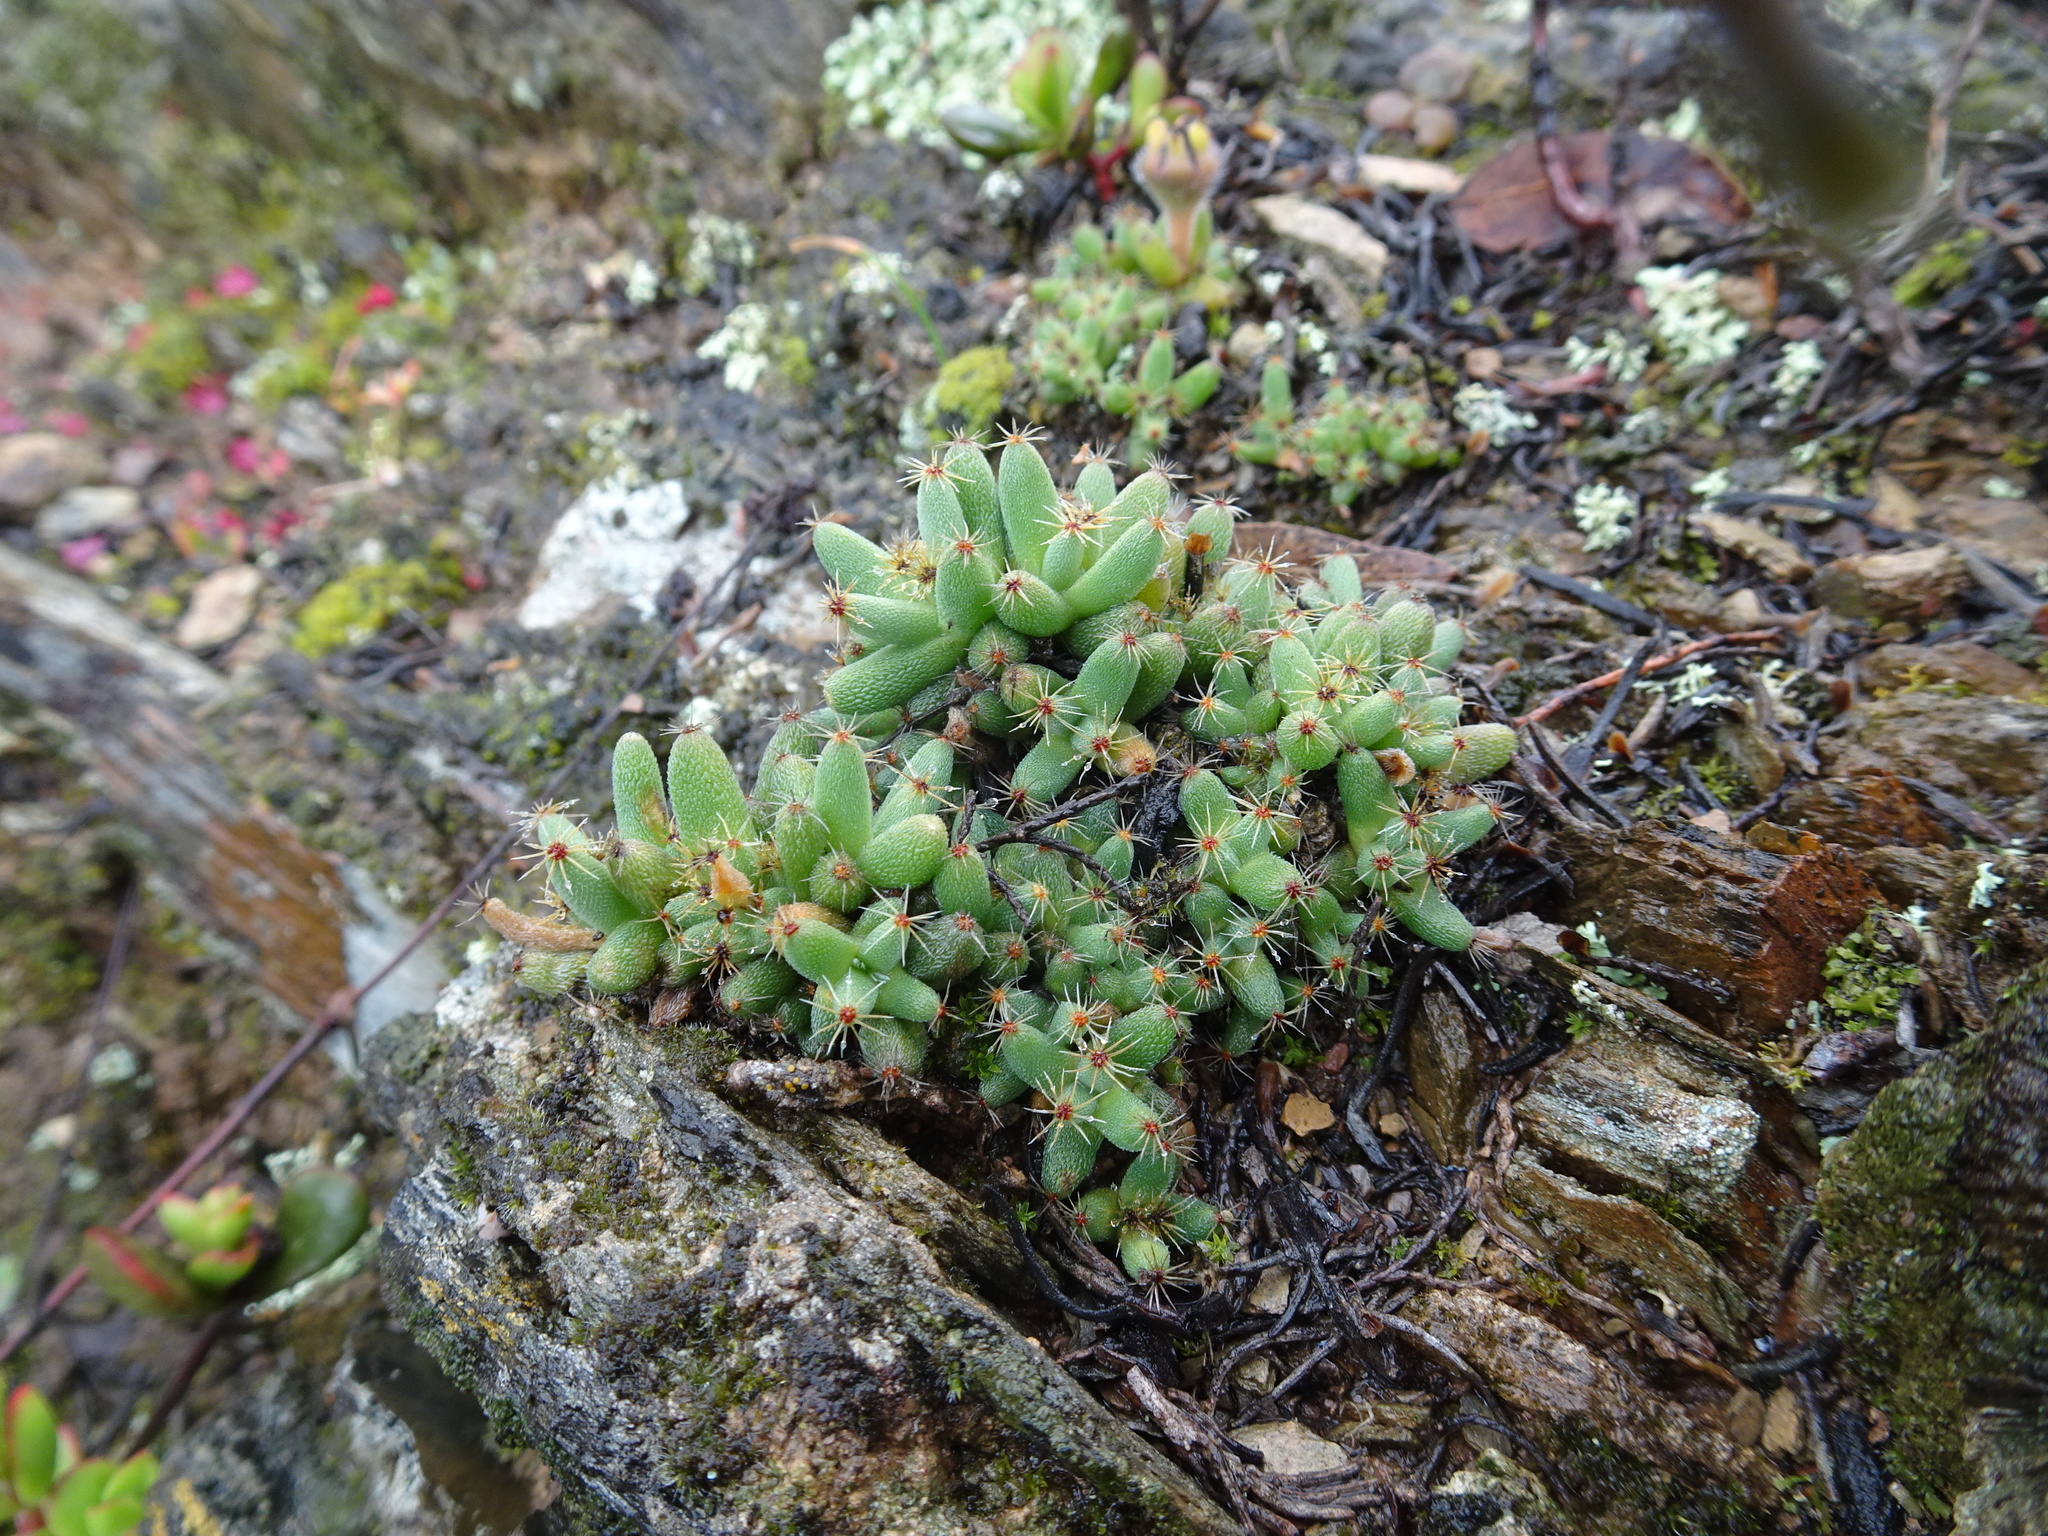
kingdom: Plantae
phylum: Tracheophyta
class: Magnoliopsida
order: Caryophyllales
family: Aizoaceae
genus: Trichodiadema
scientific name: Trichodiadema marlothii
